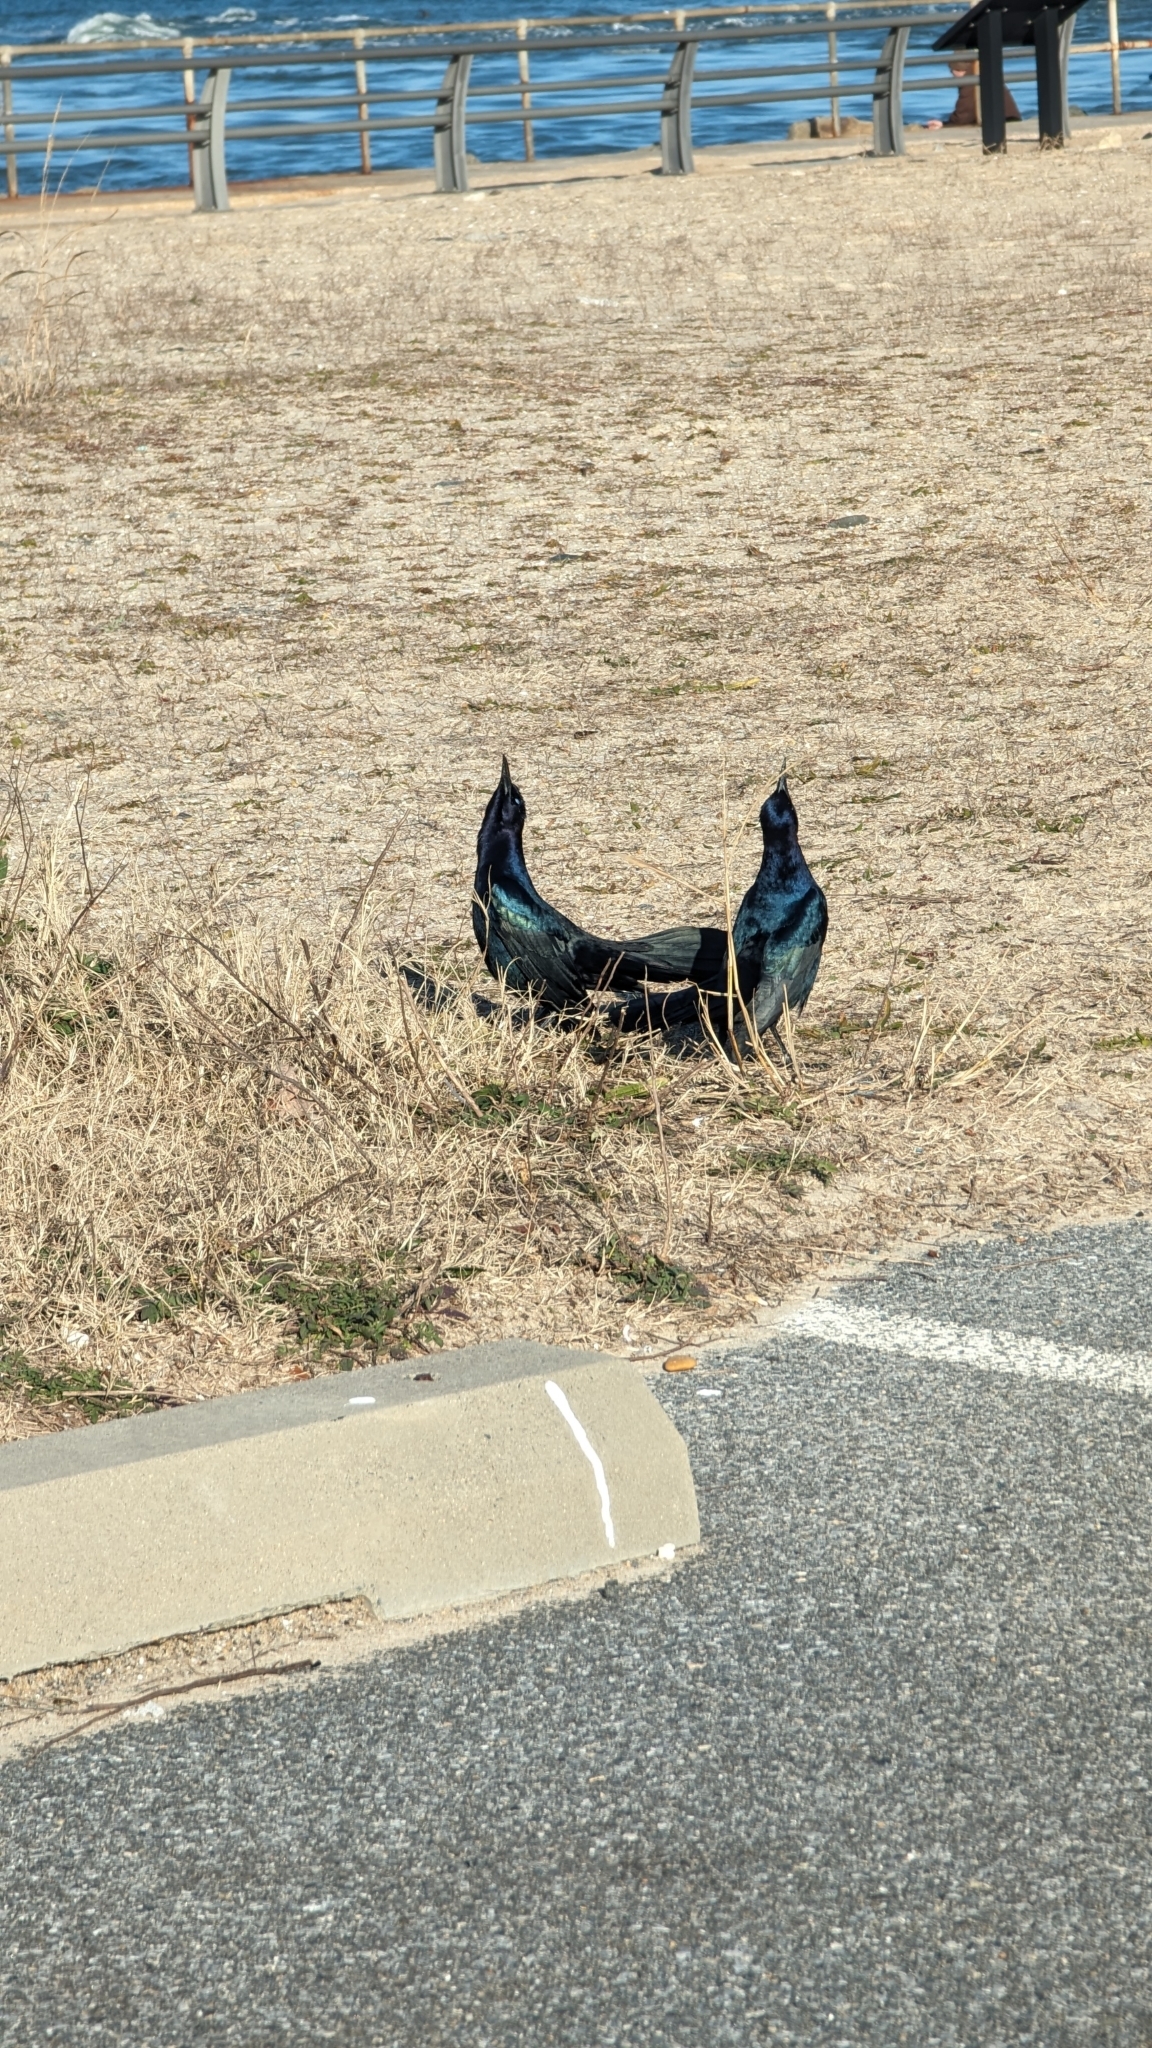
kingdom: Animalia
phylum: Chordata
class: Aves
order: Passeriformes
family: Icteridae
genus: Quiscalus
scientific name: Quiscalus major
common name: Boat-tailed grackle
